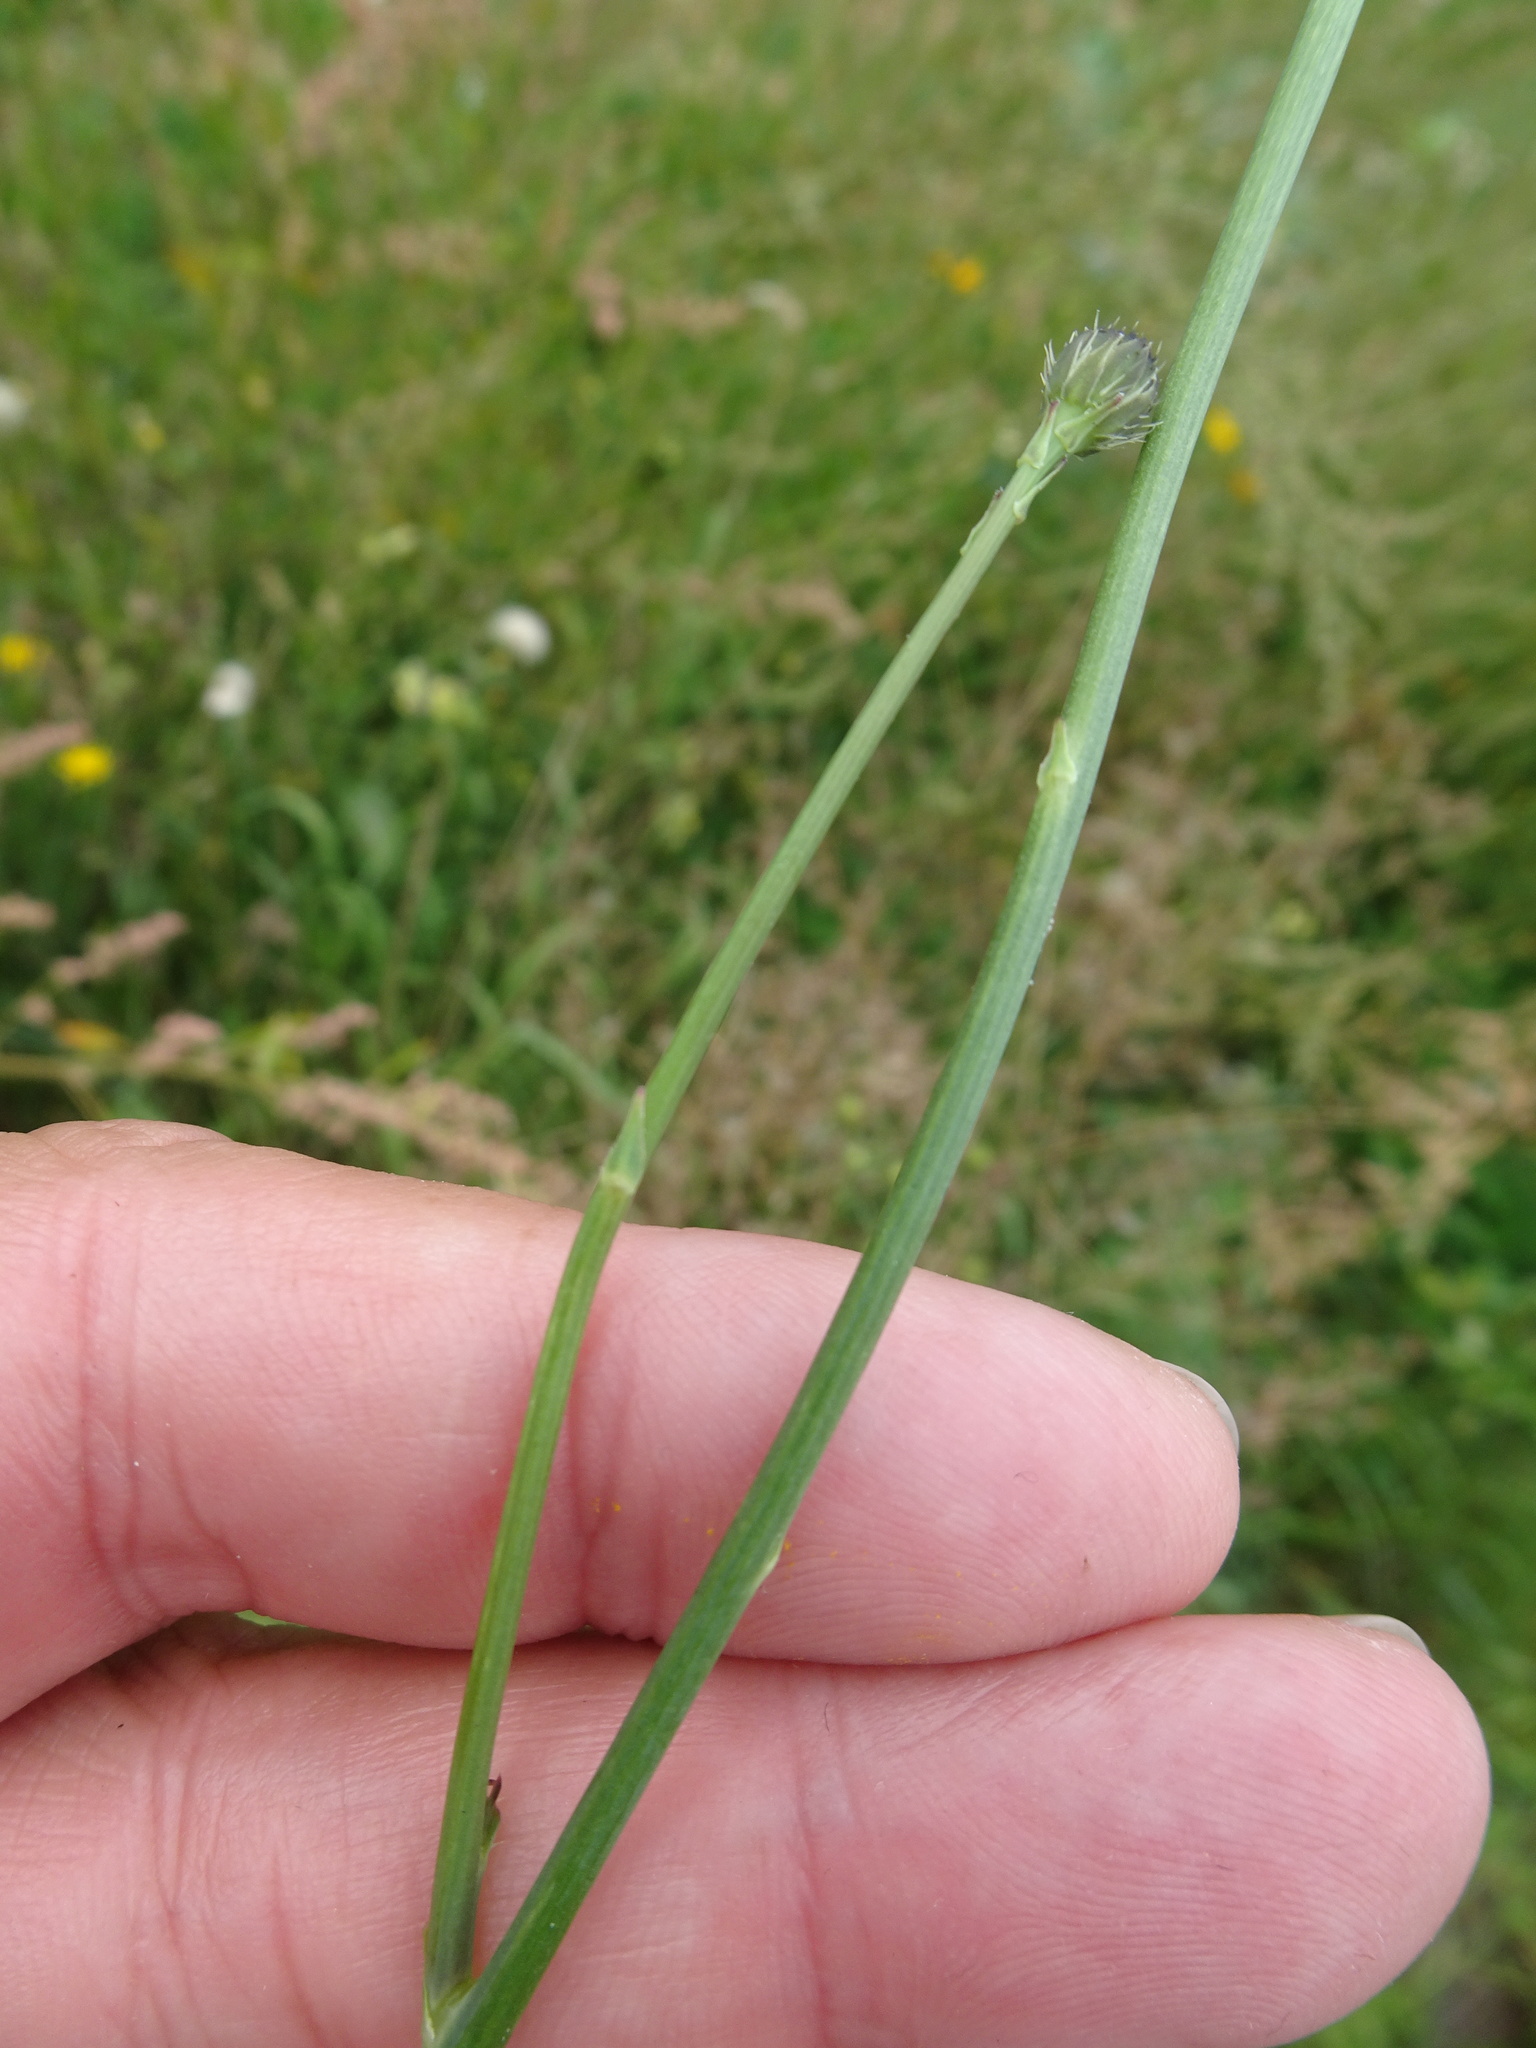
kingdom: Plantae
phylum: Tracheophyta
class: Magnoliopsida
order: Asterales
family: Asteraceae
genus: Hypochaeris
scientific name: Hypochaeris radicata
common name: Flatweed
